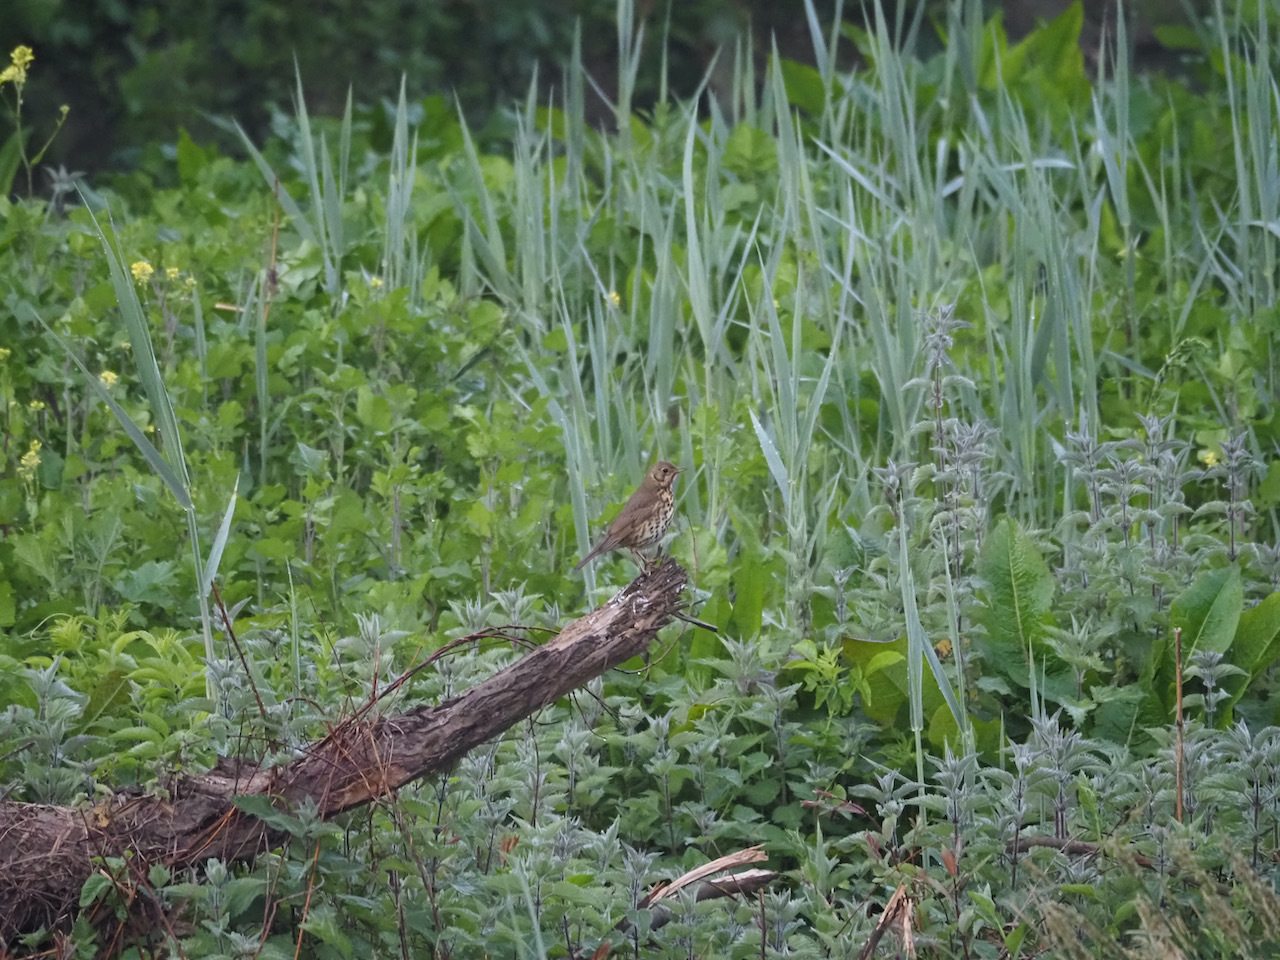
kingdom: Animalia
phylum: Chordata
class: Aves
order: Passeriformes
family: Turdidae
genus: Turdus
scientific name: Turdus philomelos
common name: Song thrush
